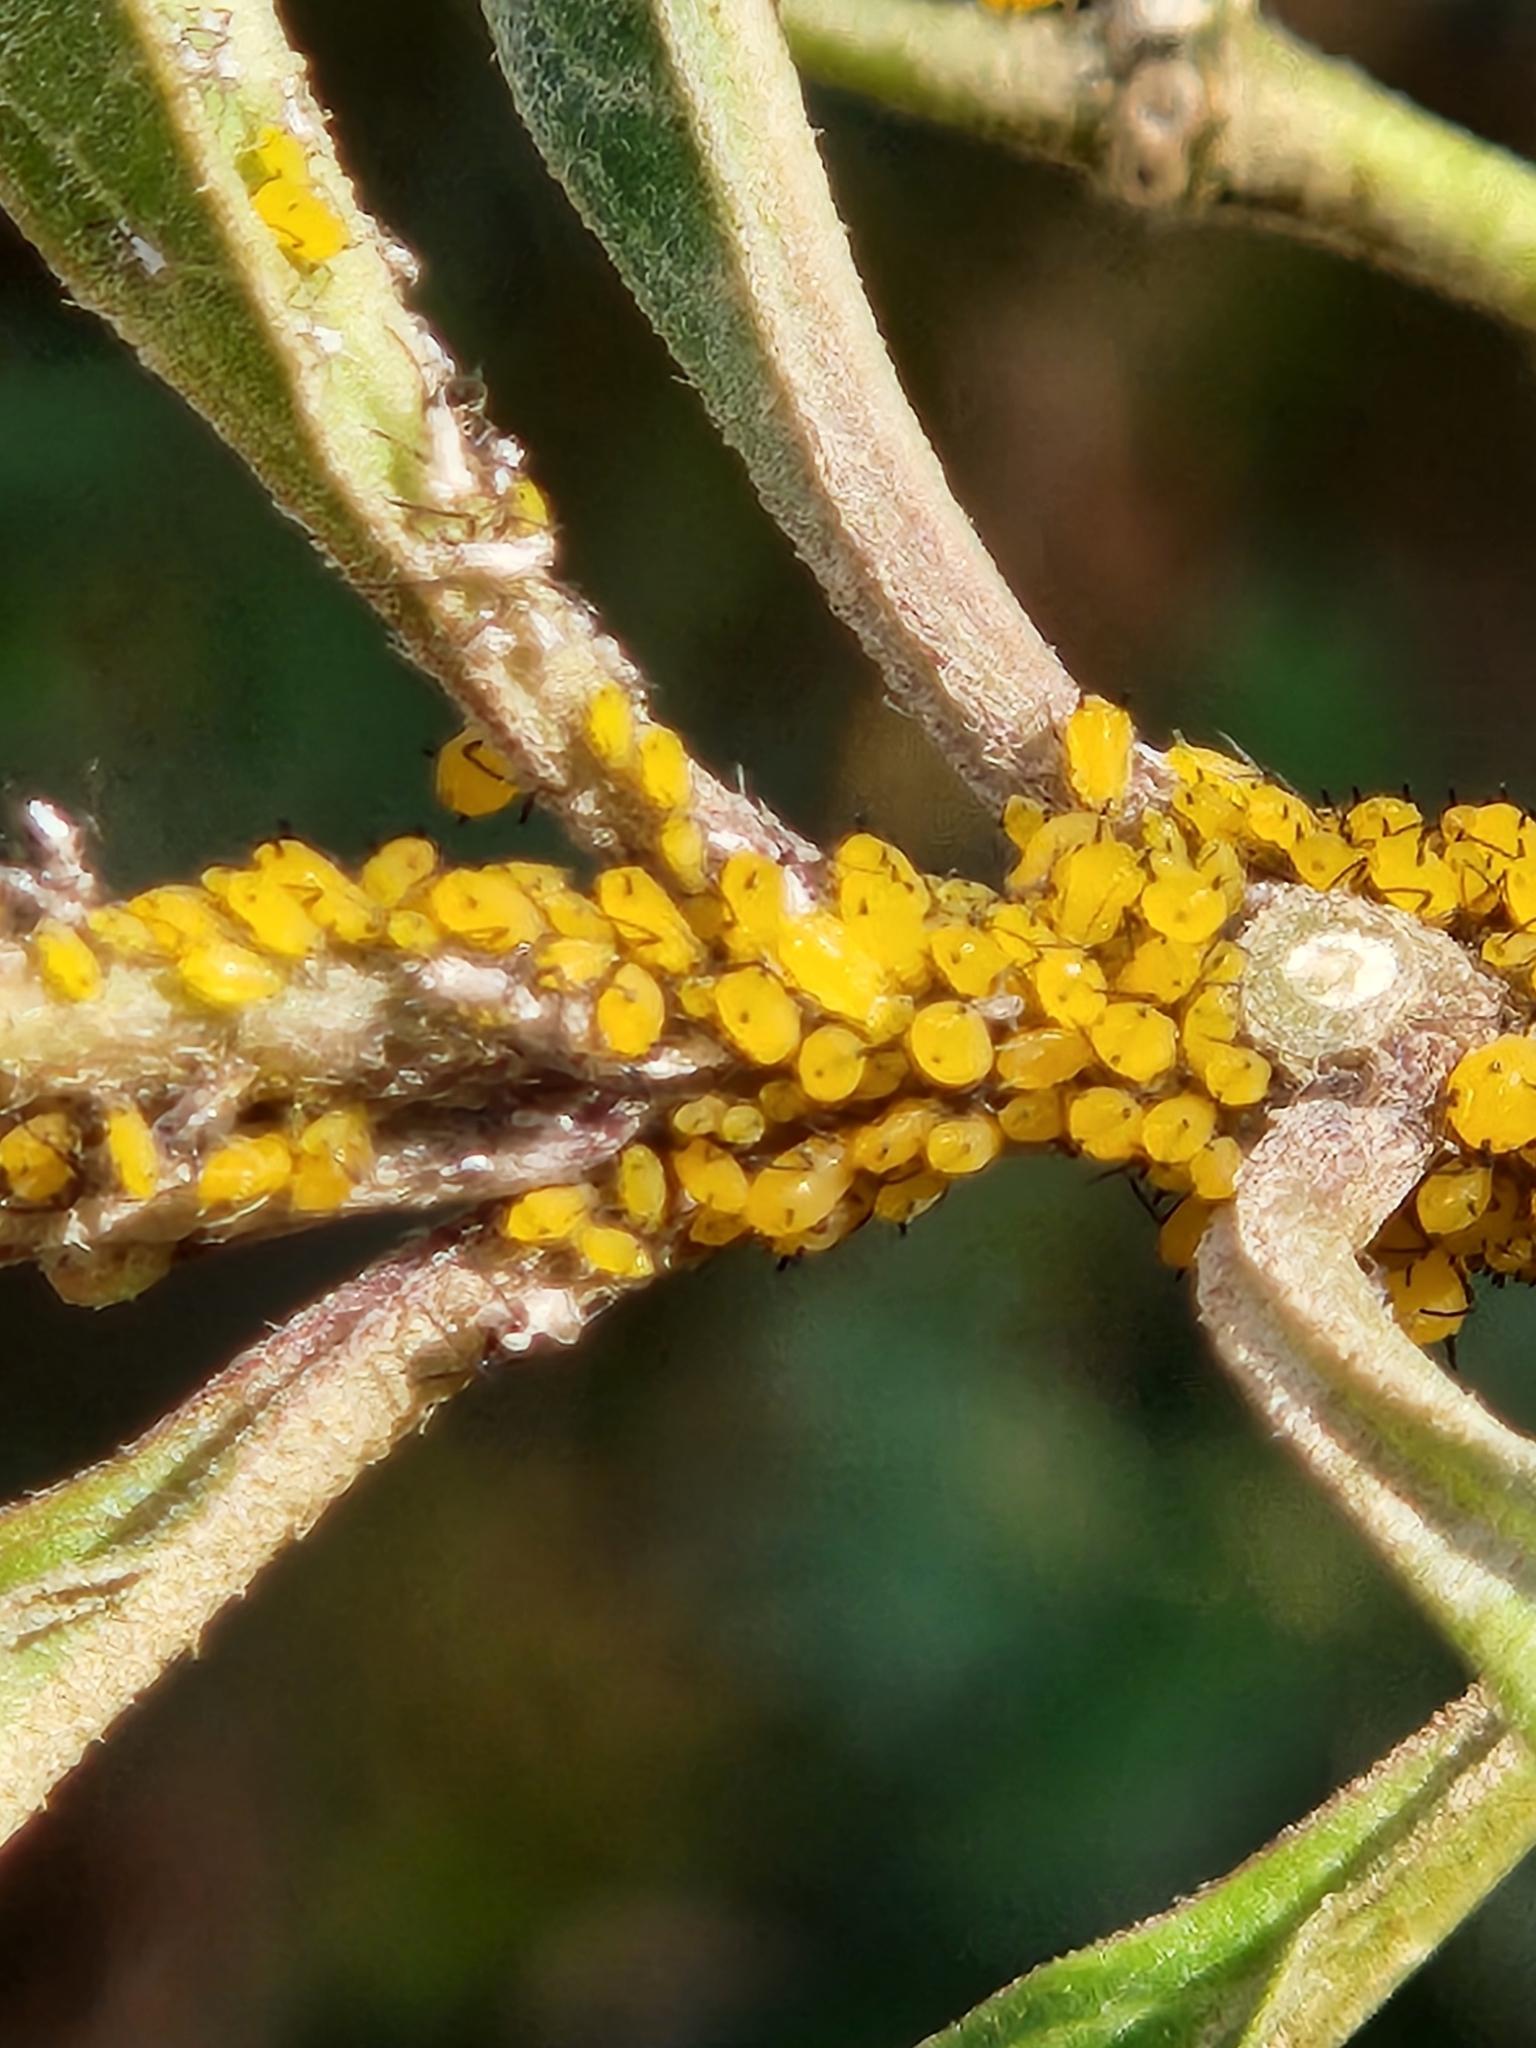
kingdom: Animalia
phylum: Arthropoda
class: Insecta
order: Hemiptera
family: Aphididae
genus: Aphis
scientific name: Aphis nerii
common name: Oleander aphid
